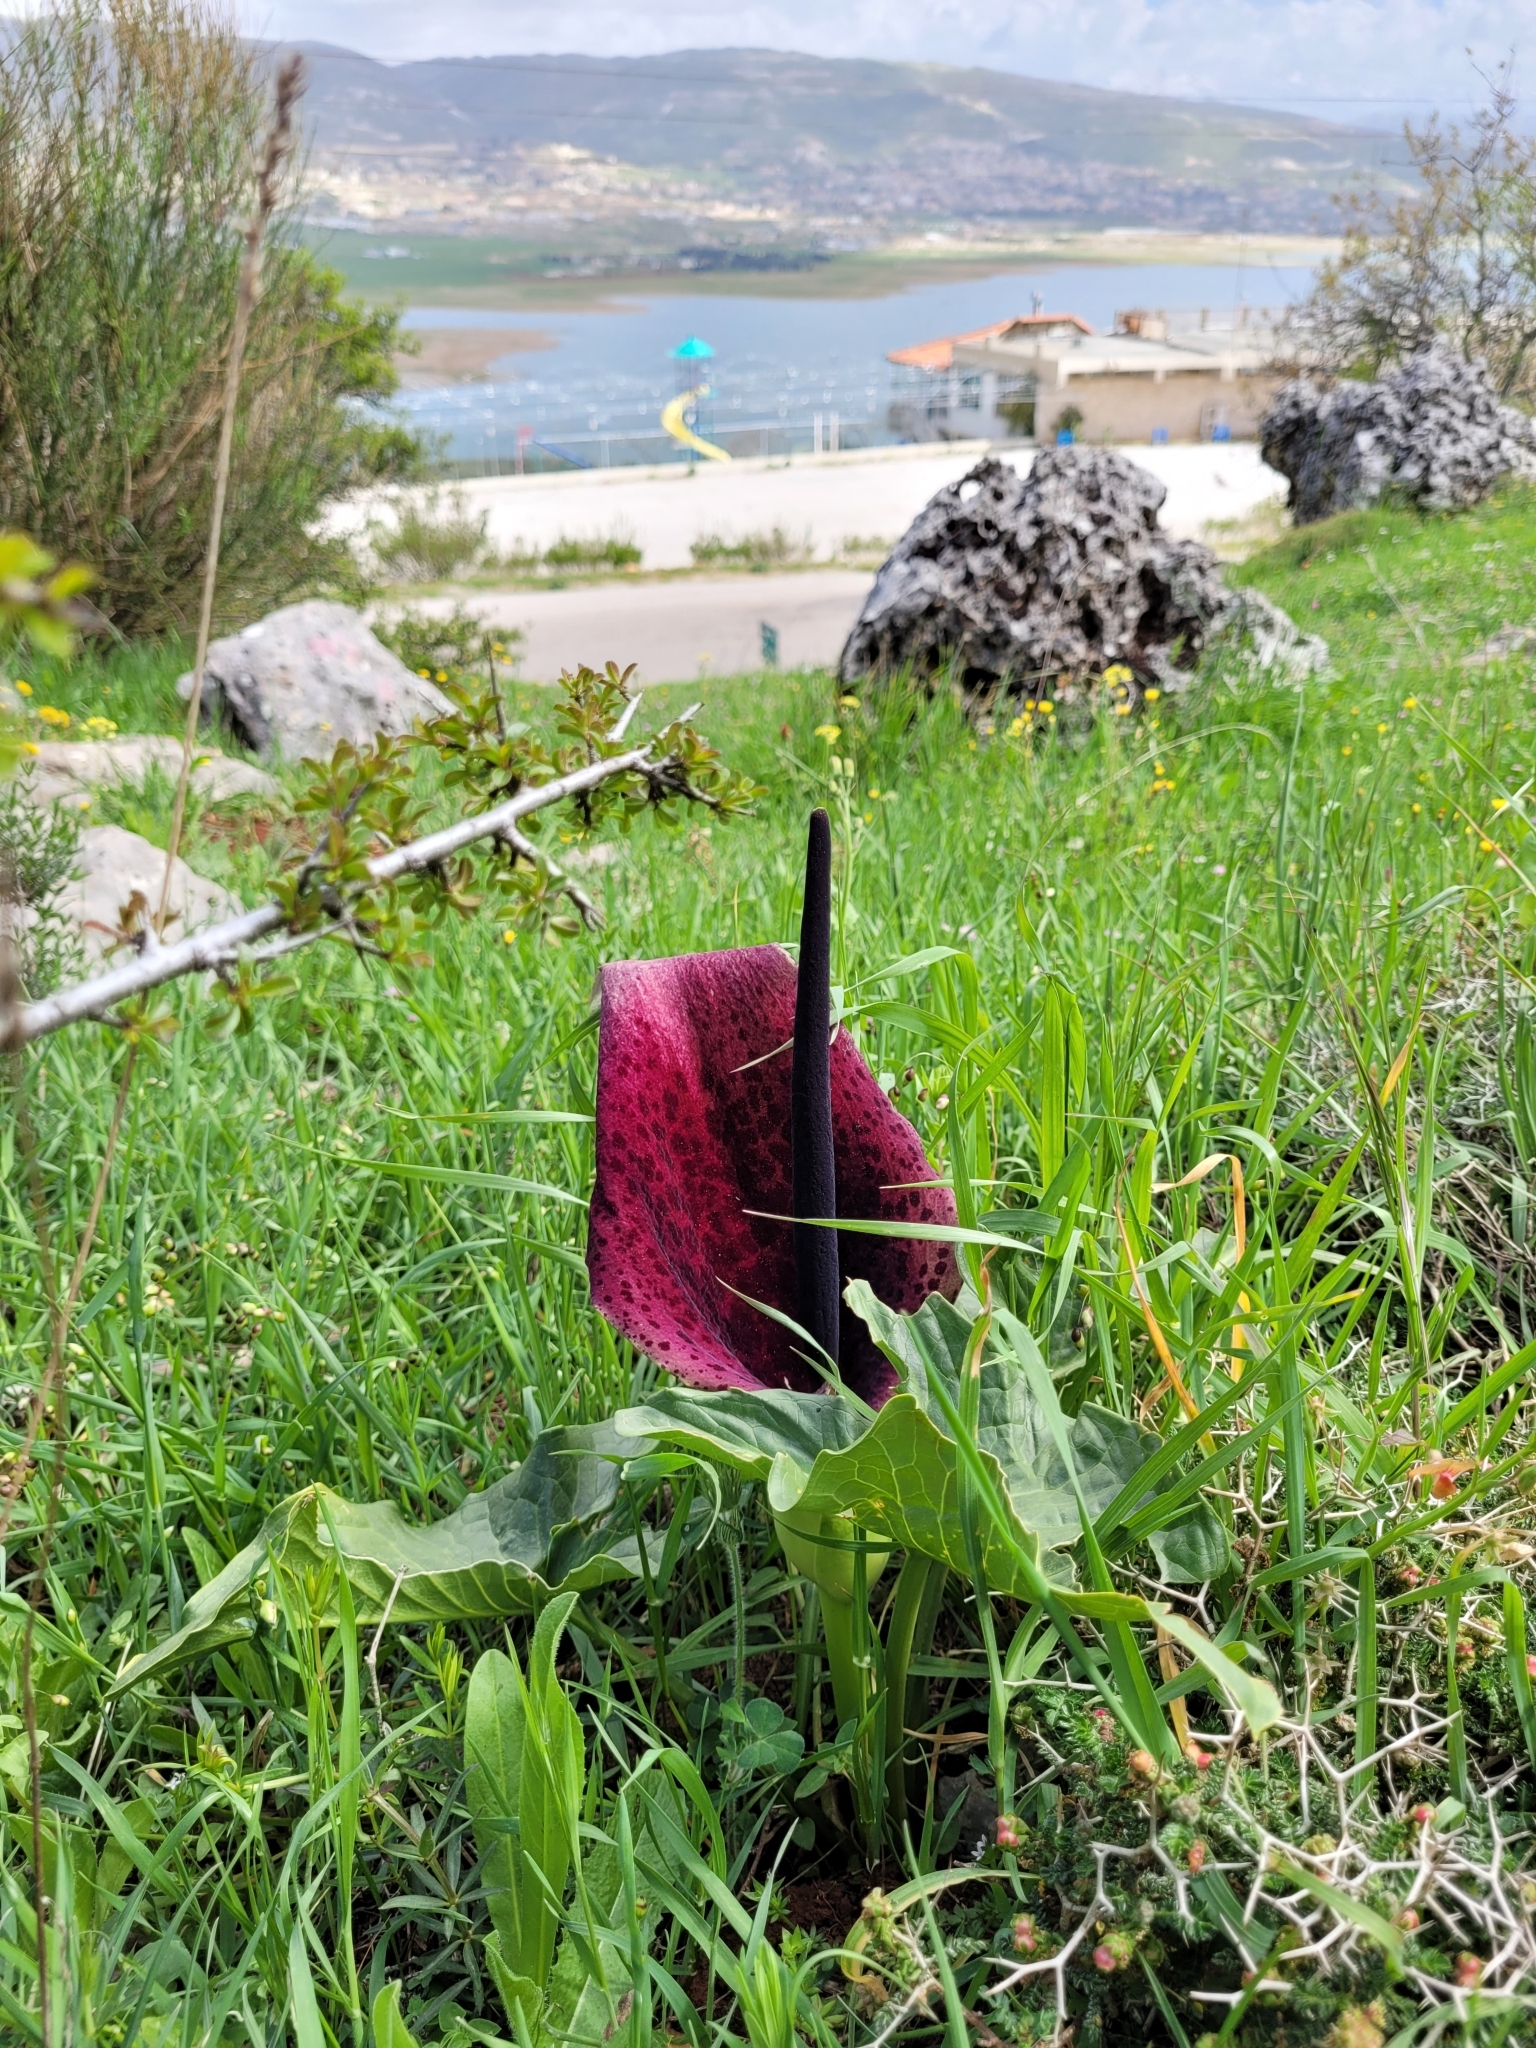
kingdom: Plantae
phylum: Tracheophyta
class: Liliopsida
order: Alismatales
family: Araceae
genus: Arum
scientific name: Arum palaestinum
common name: Solomon's lily
